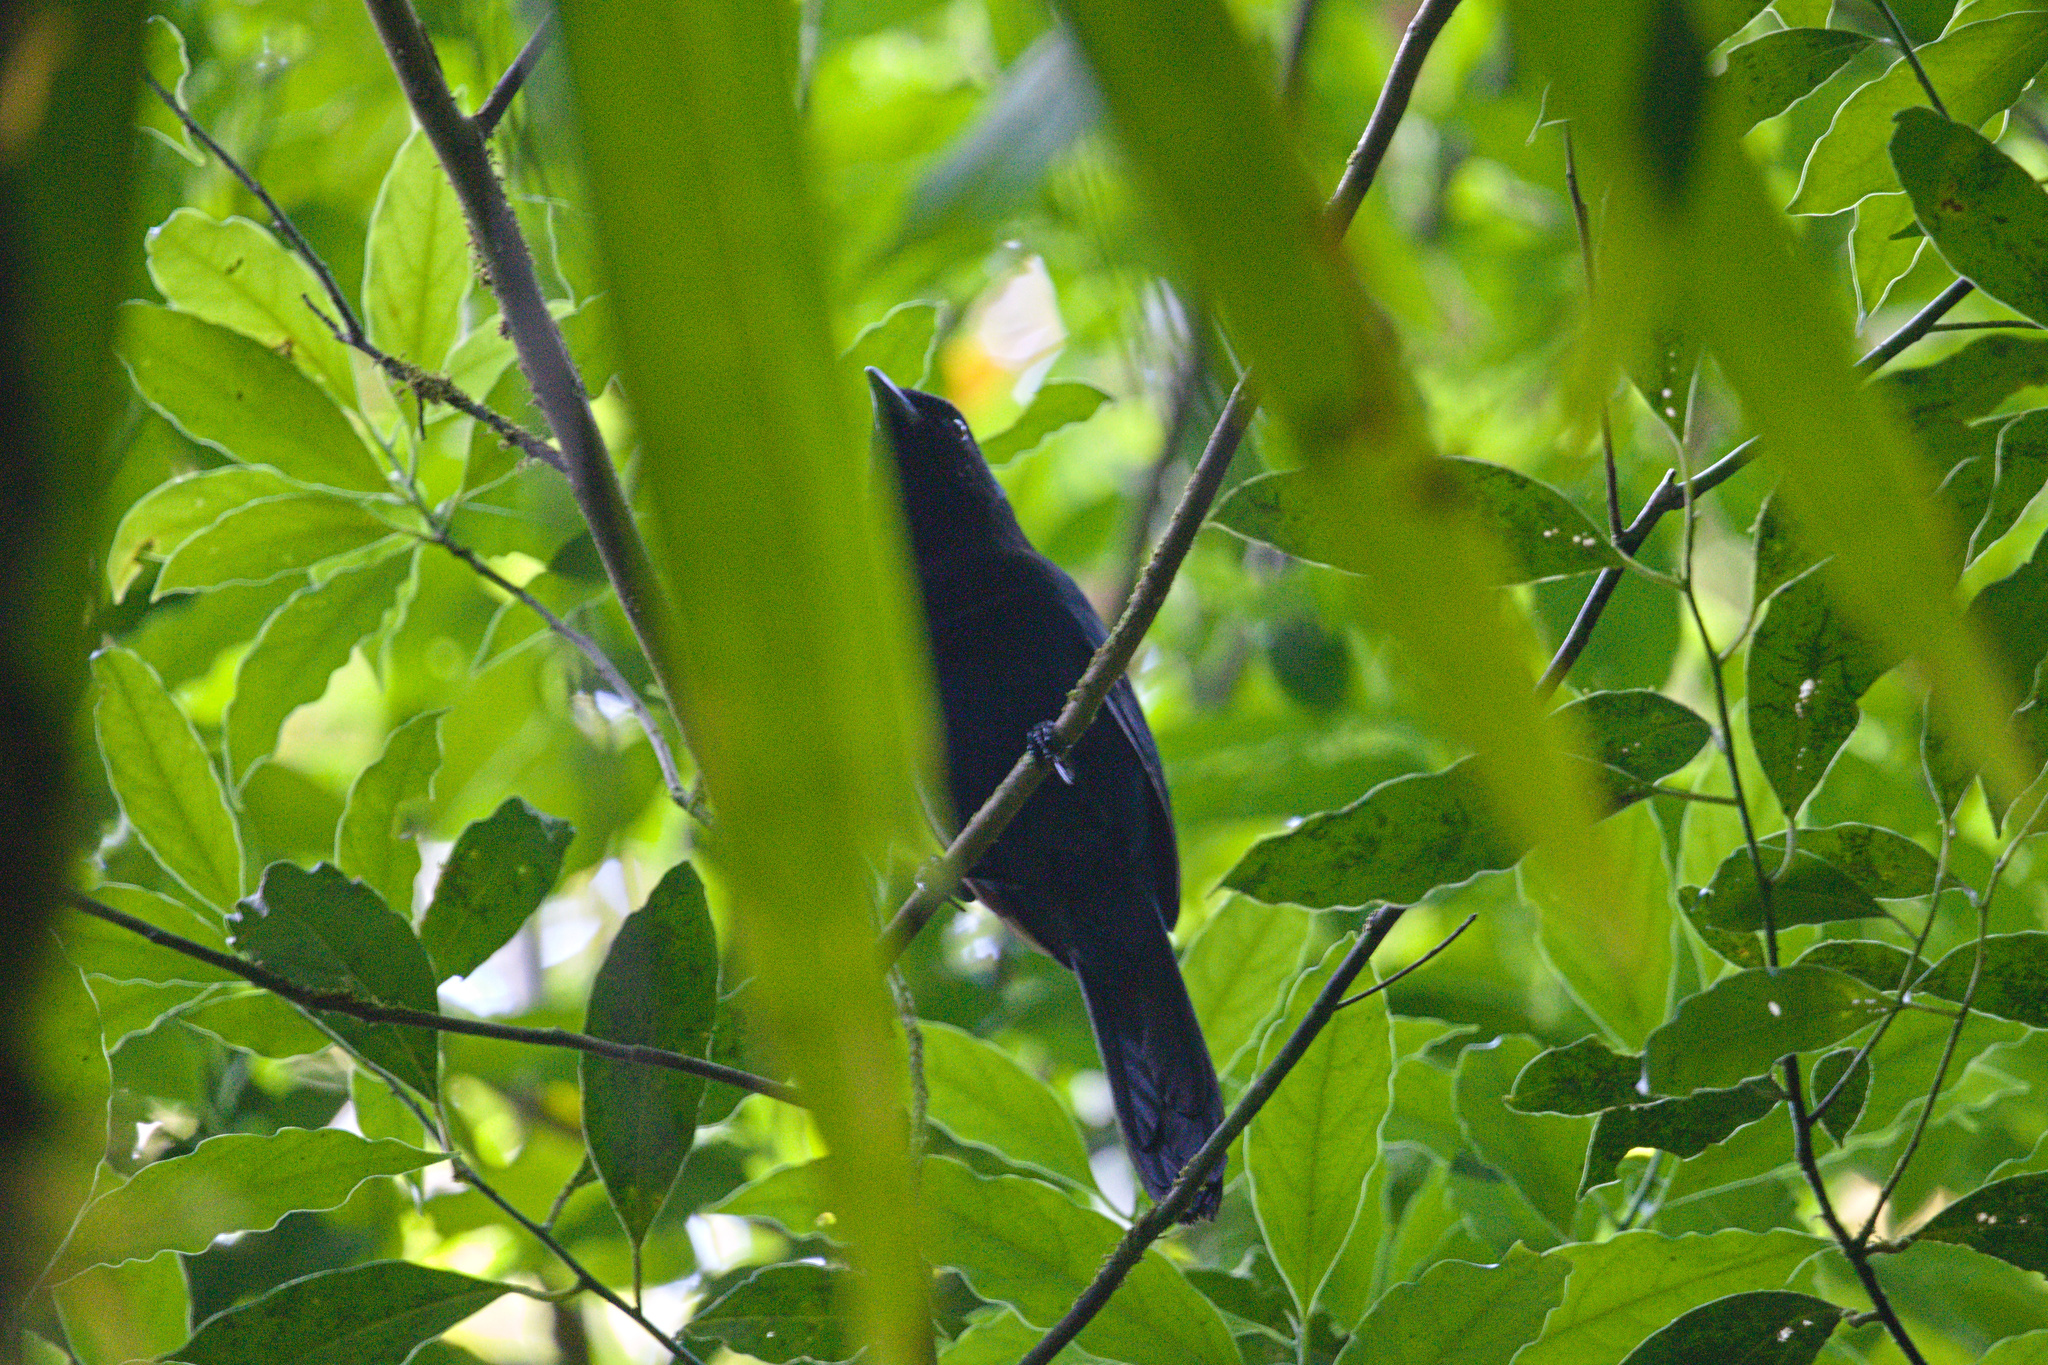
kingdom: Animalia
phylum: Chordata
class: Aves
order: Passeriformes
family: Corvidae
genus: Cyanolyca
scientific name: Cyanolyca cucullata
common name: Azure-hooded jay
